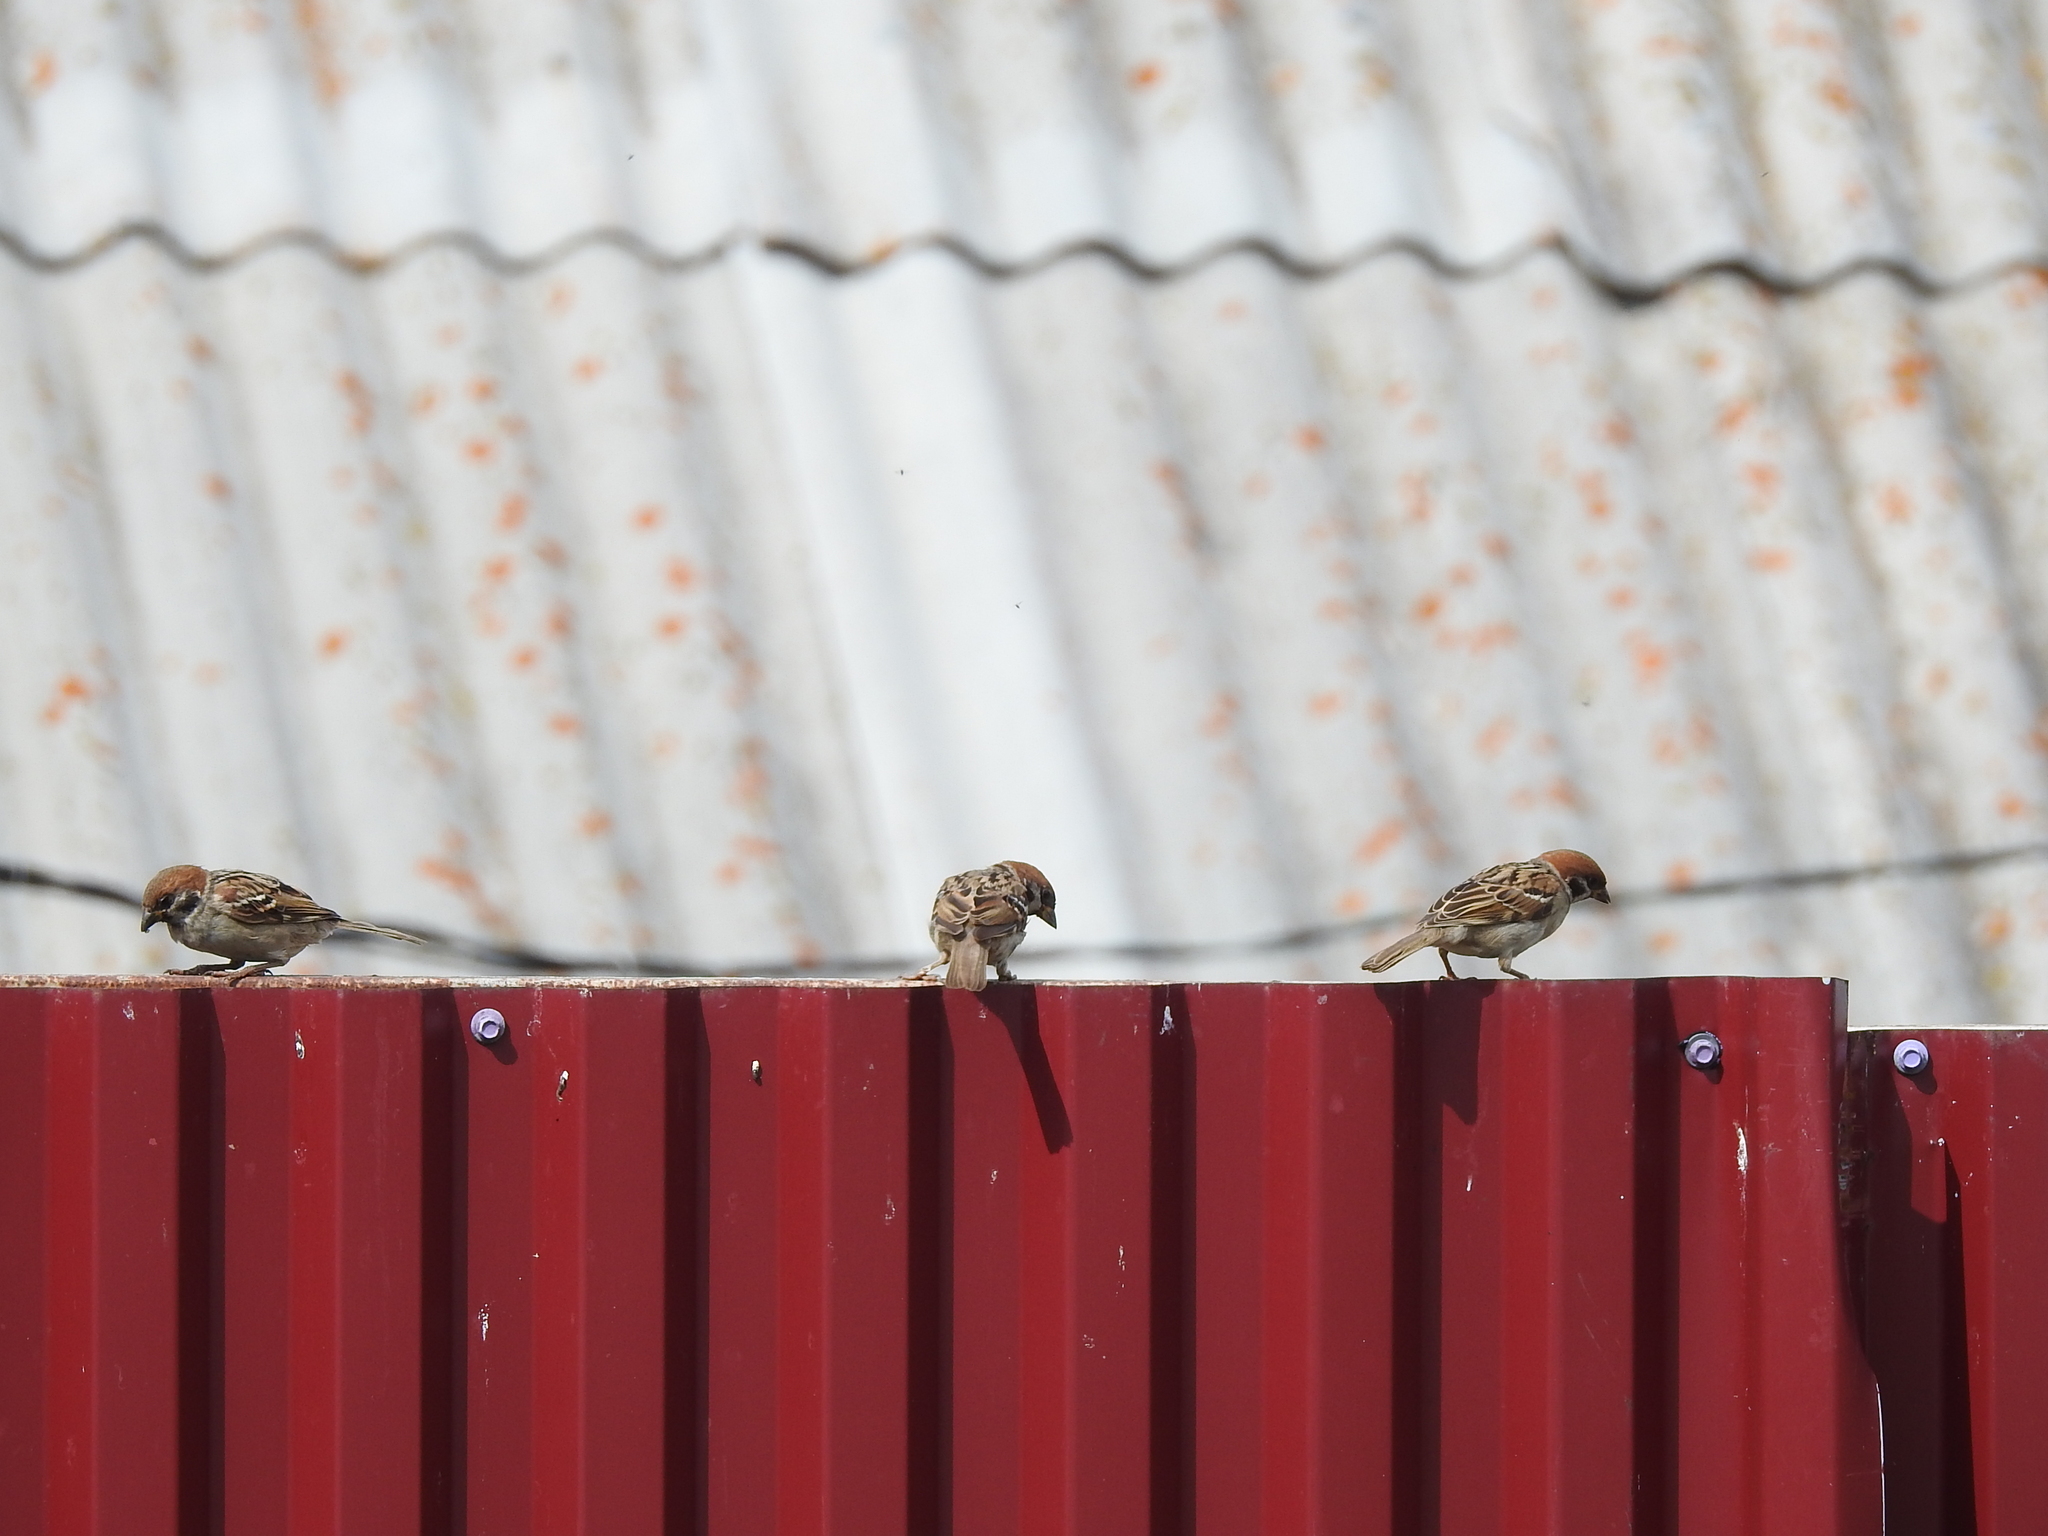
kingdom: Animalia
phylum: Chordata
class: Aves
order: Passeriformes
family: Passeridae
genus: Passer
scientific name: Passer montanus
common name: Eurasian tree sparrow
